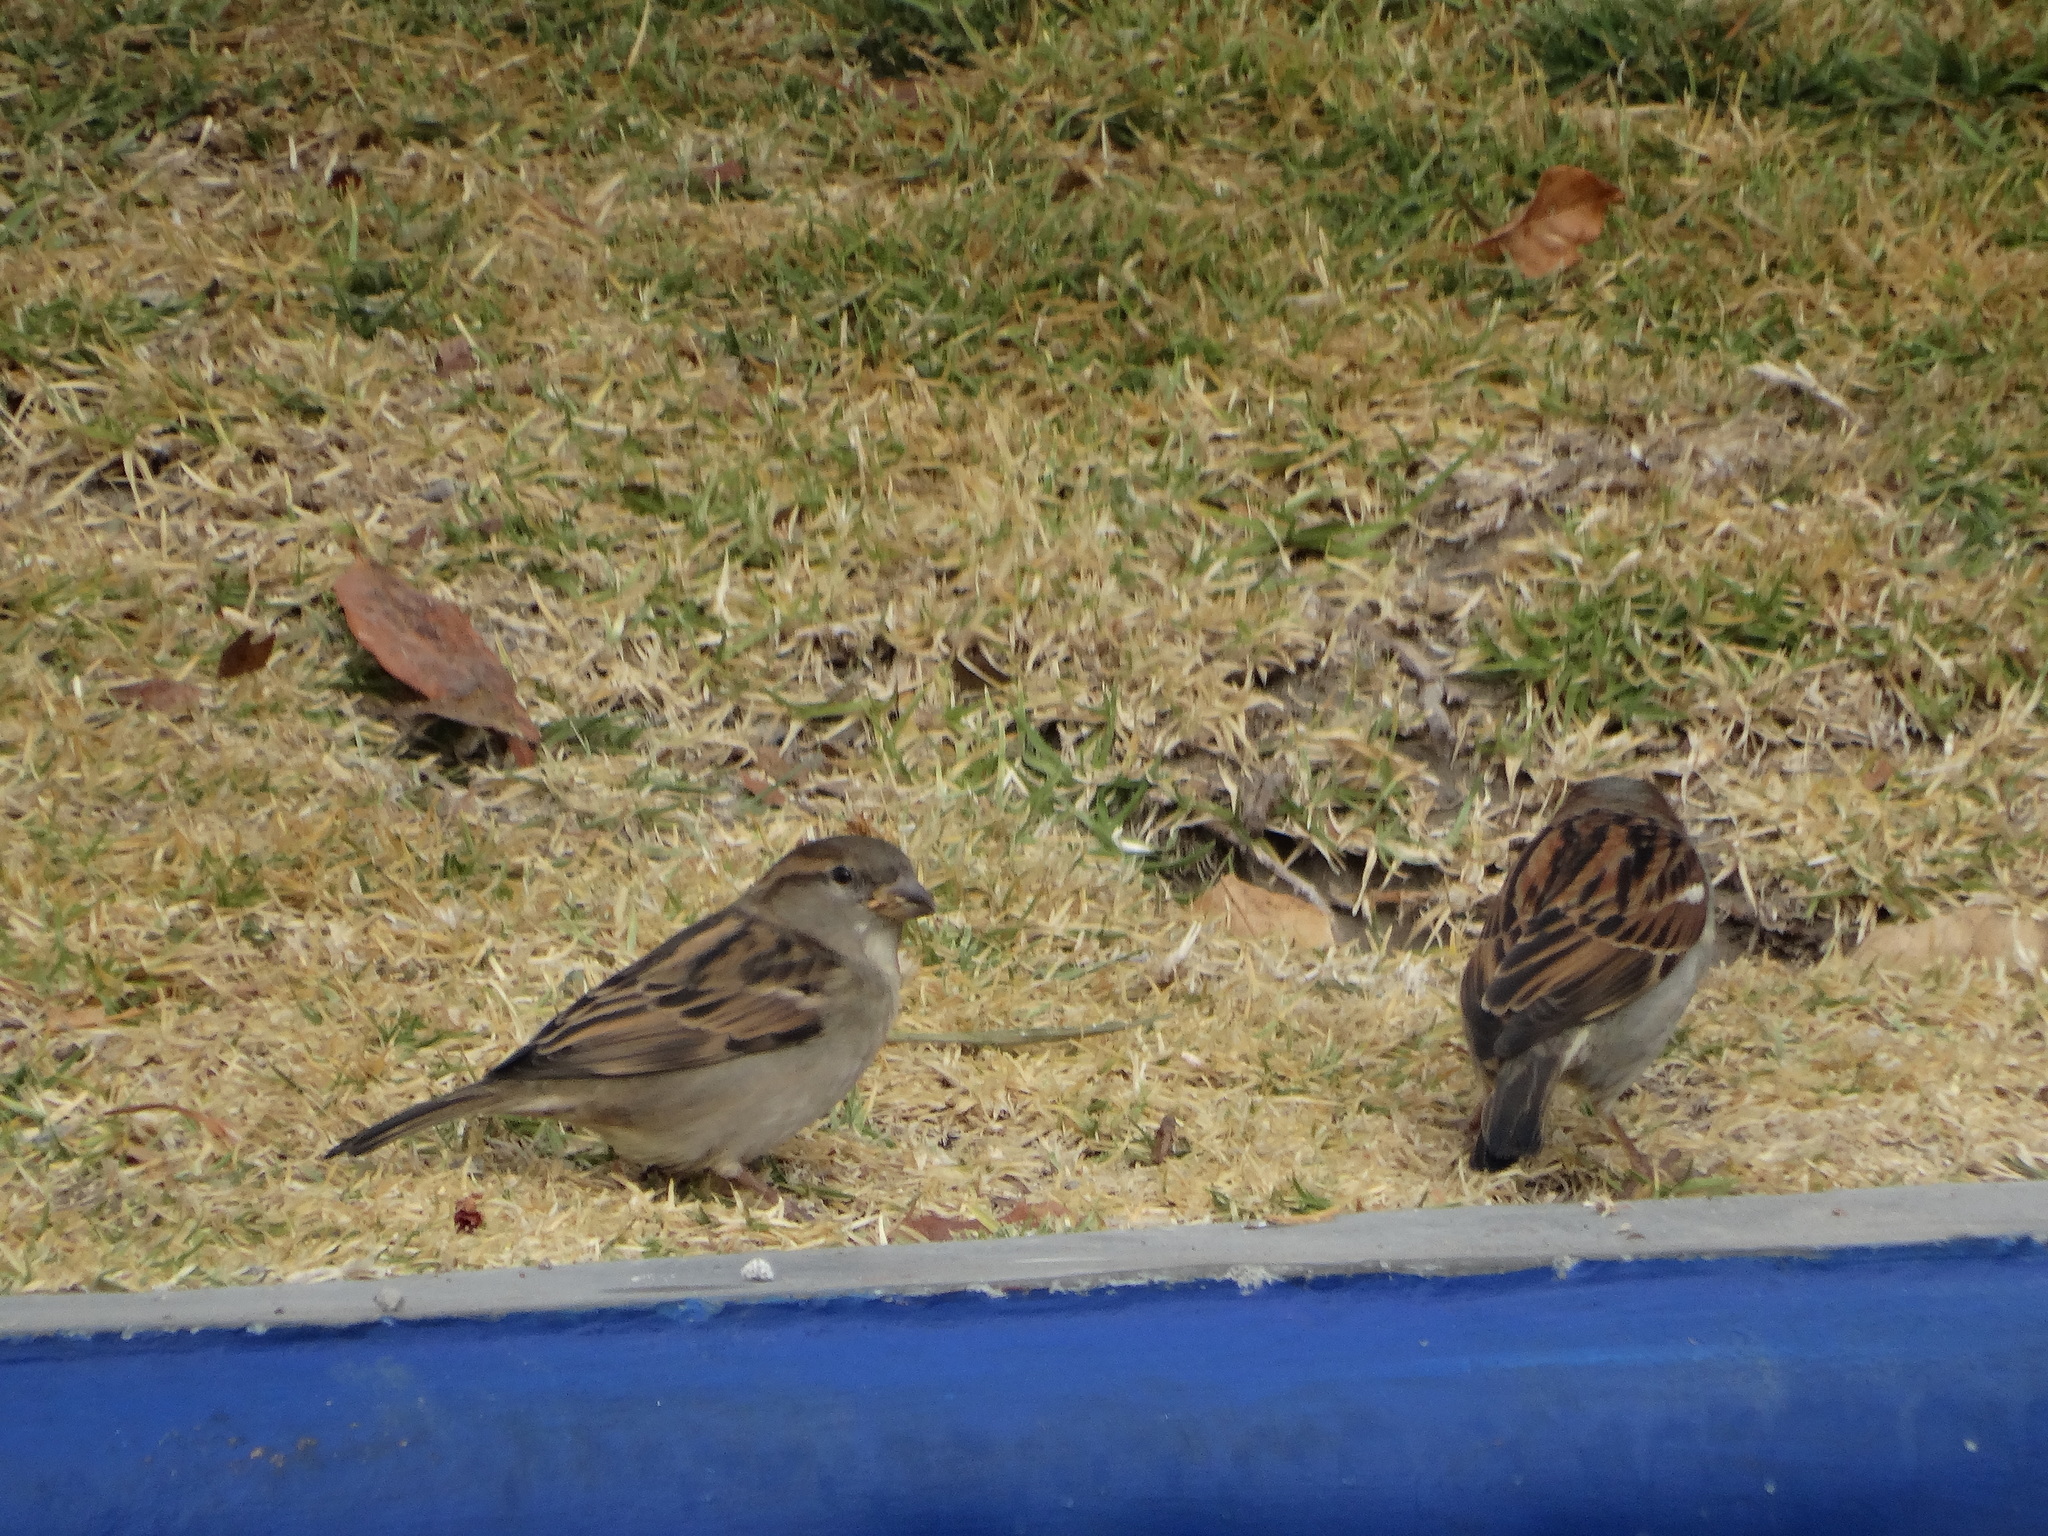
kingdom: Animalia
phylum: Chordata
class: Aves
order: Passeriformes
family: Passeridae
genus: Passer
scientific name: Passer domesticus
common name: House sparrow
